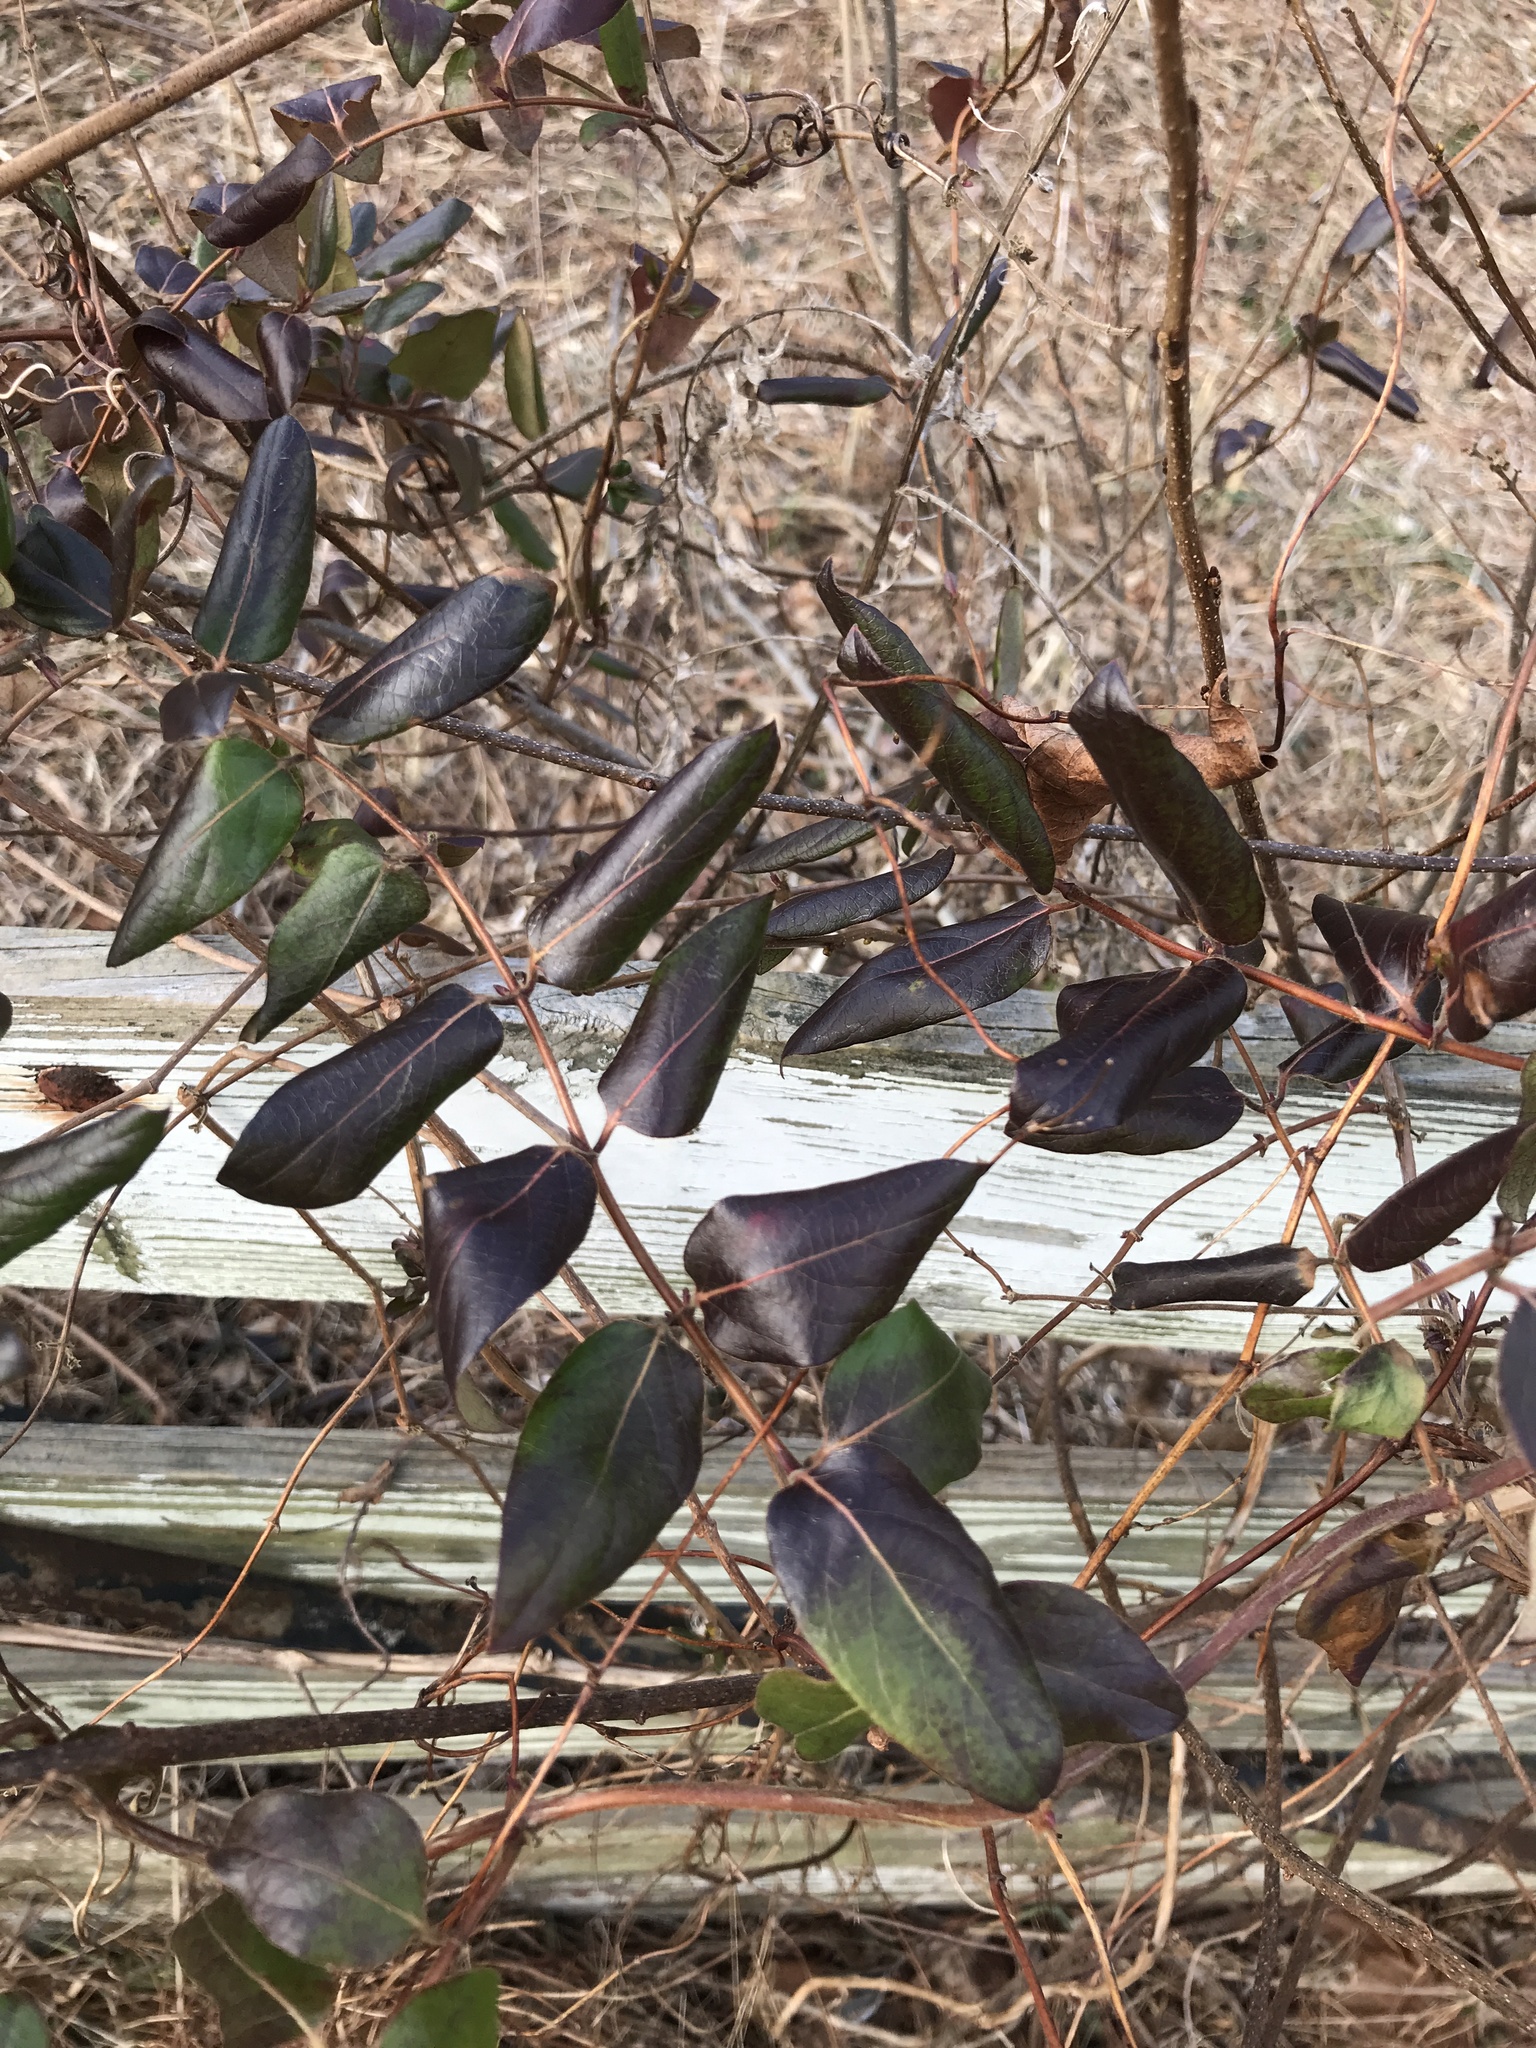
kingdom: Plantae
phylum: Tracheophyta
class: Magnoliopsida
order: Dipsacales
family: Caprifoliaceae
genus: Lonicera
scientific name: Lonicera japonica
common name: Japanese honeysuckle
